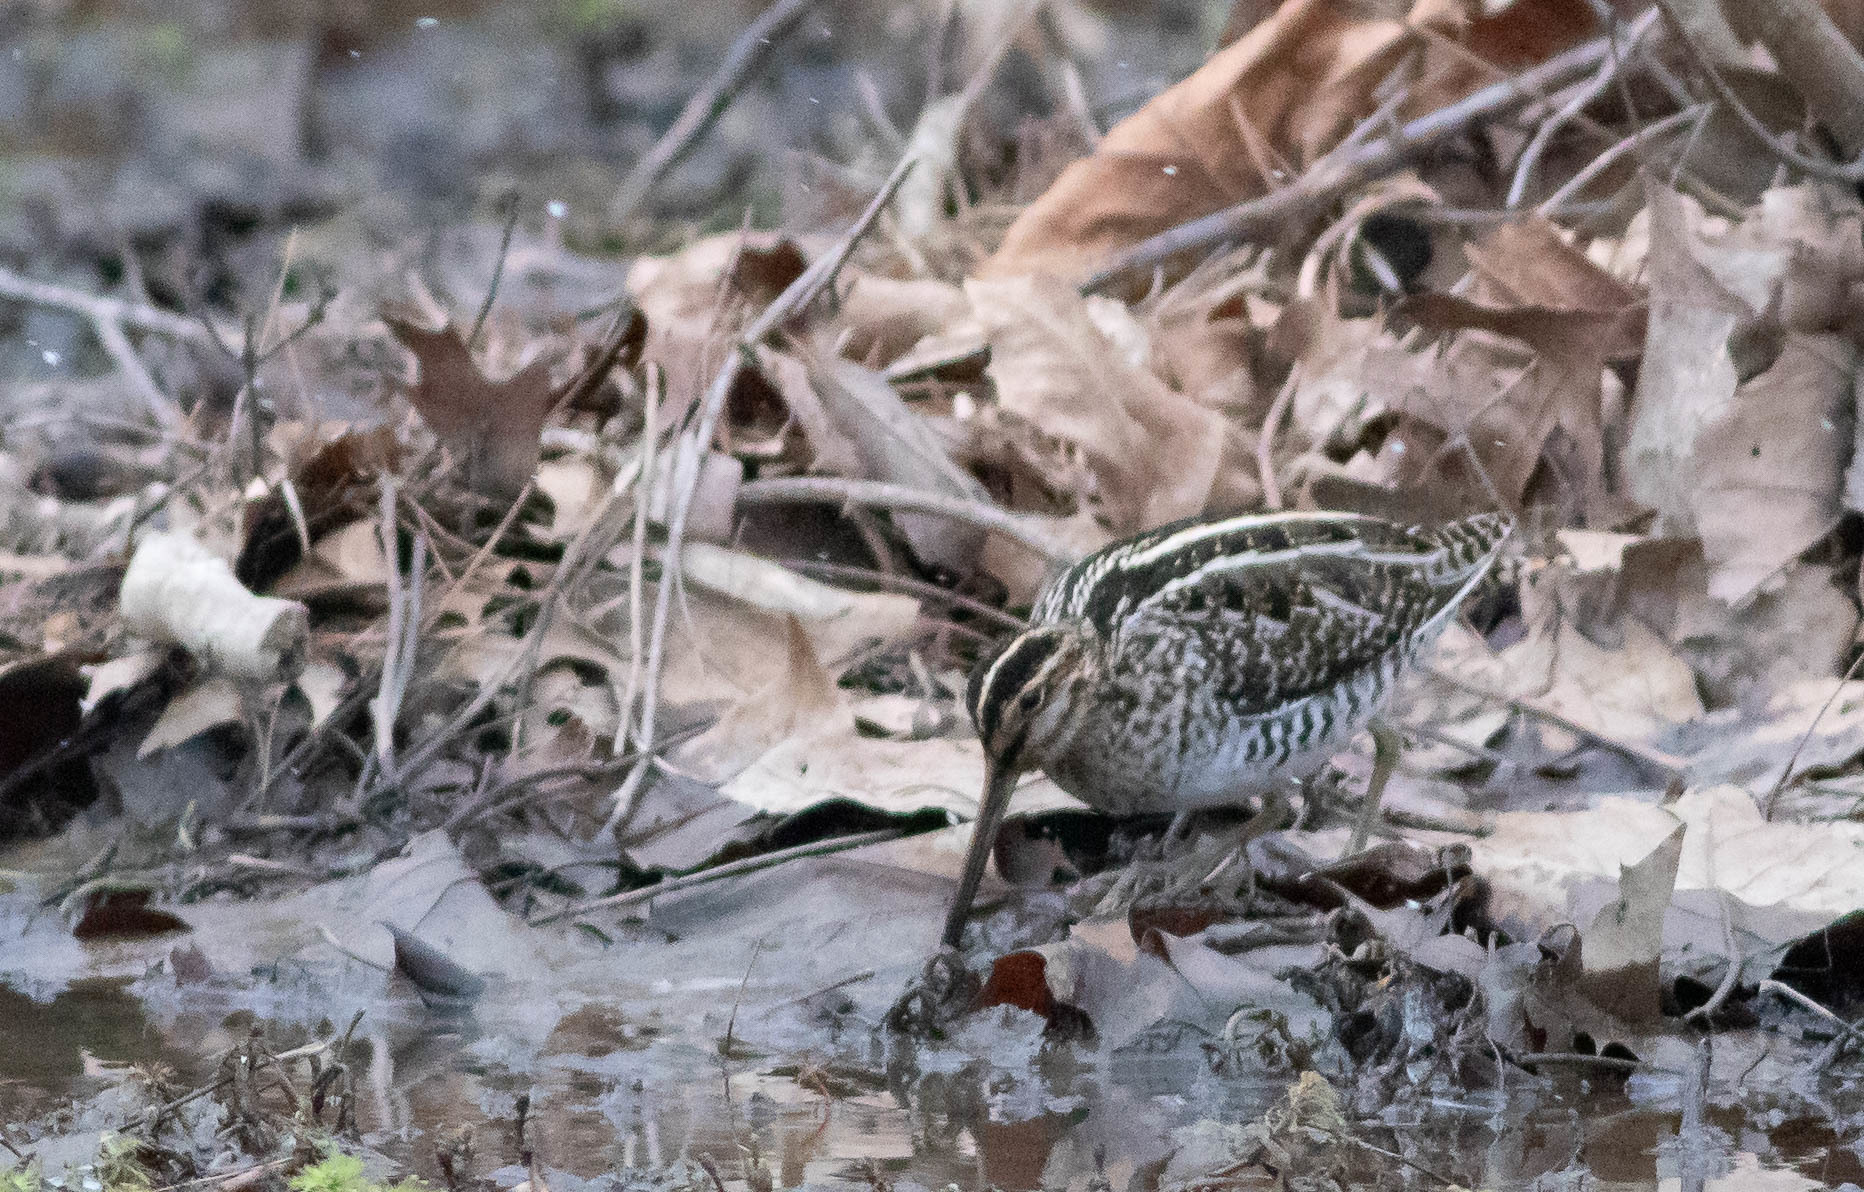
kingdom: Animalia
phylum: Chordata
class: Aves
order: Charadriiformes
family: Scolopacidae
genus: Gallinago
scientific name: Gallinago delicata
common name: Wilson's snipe
